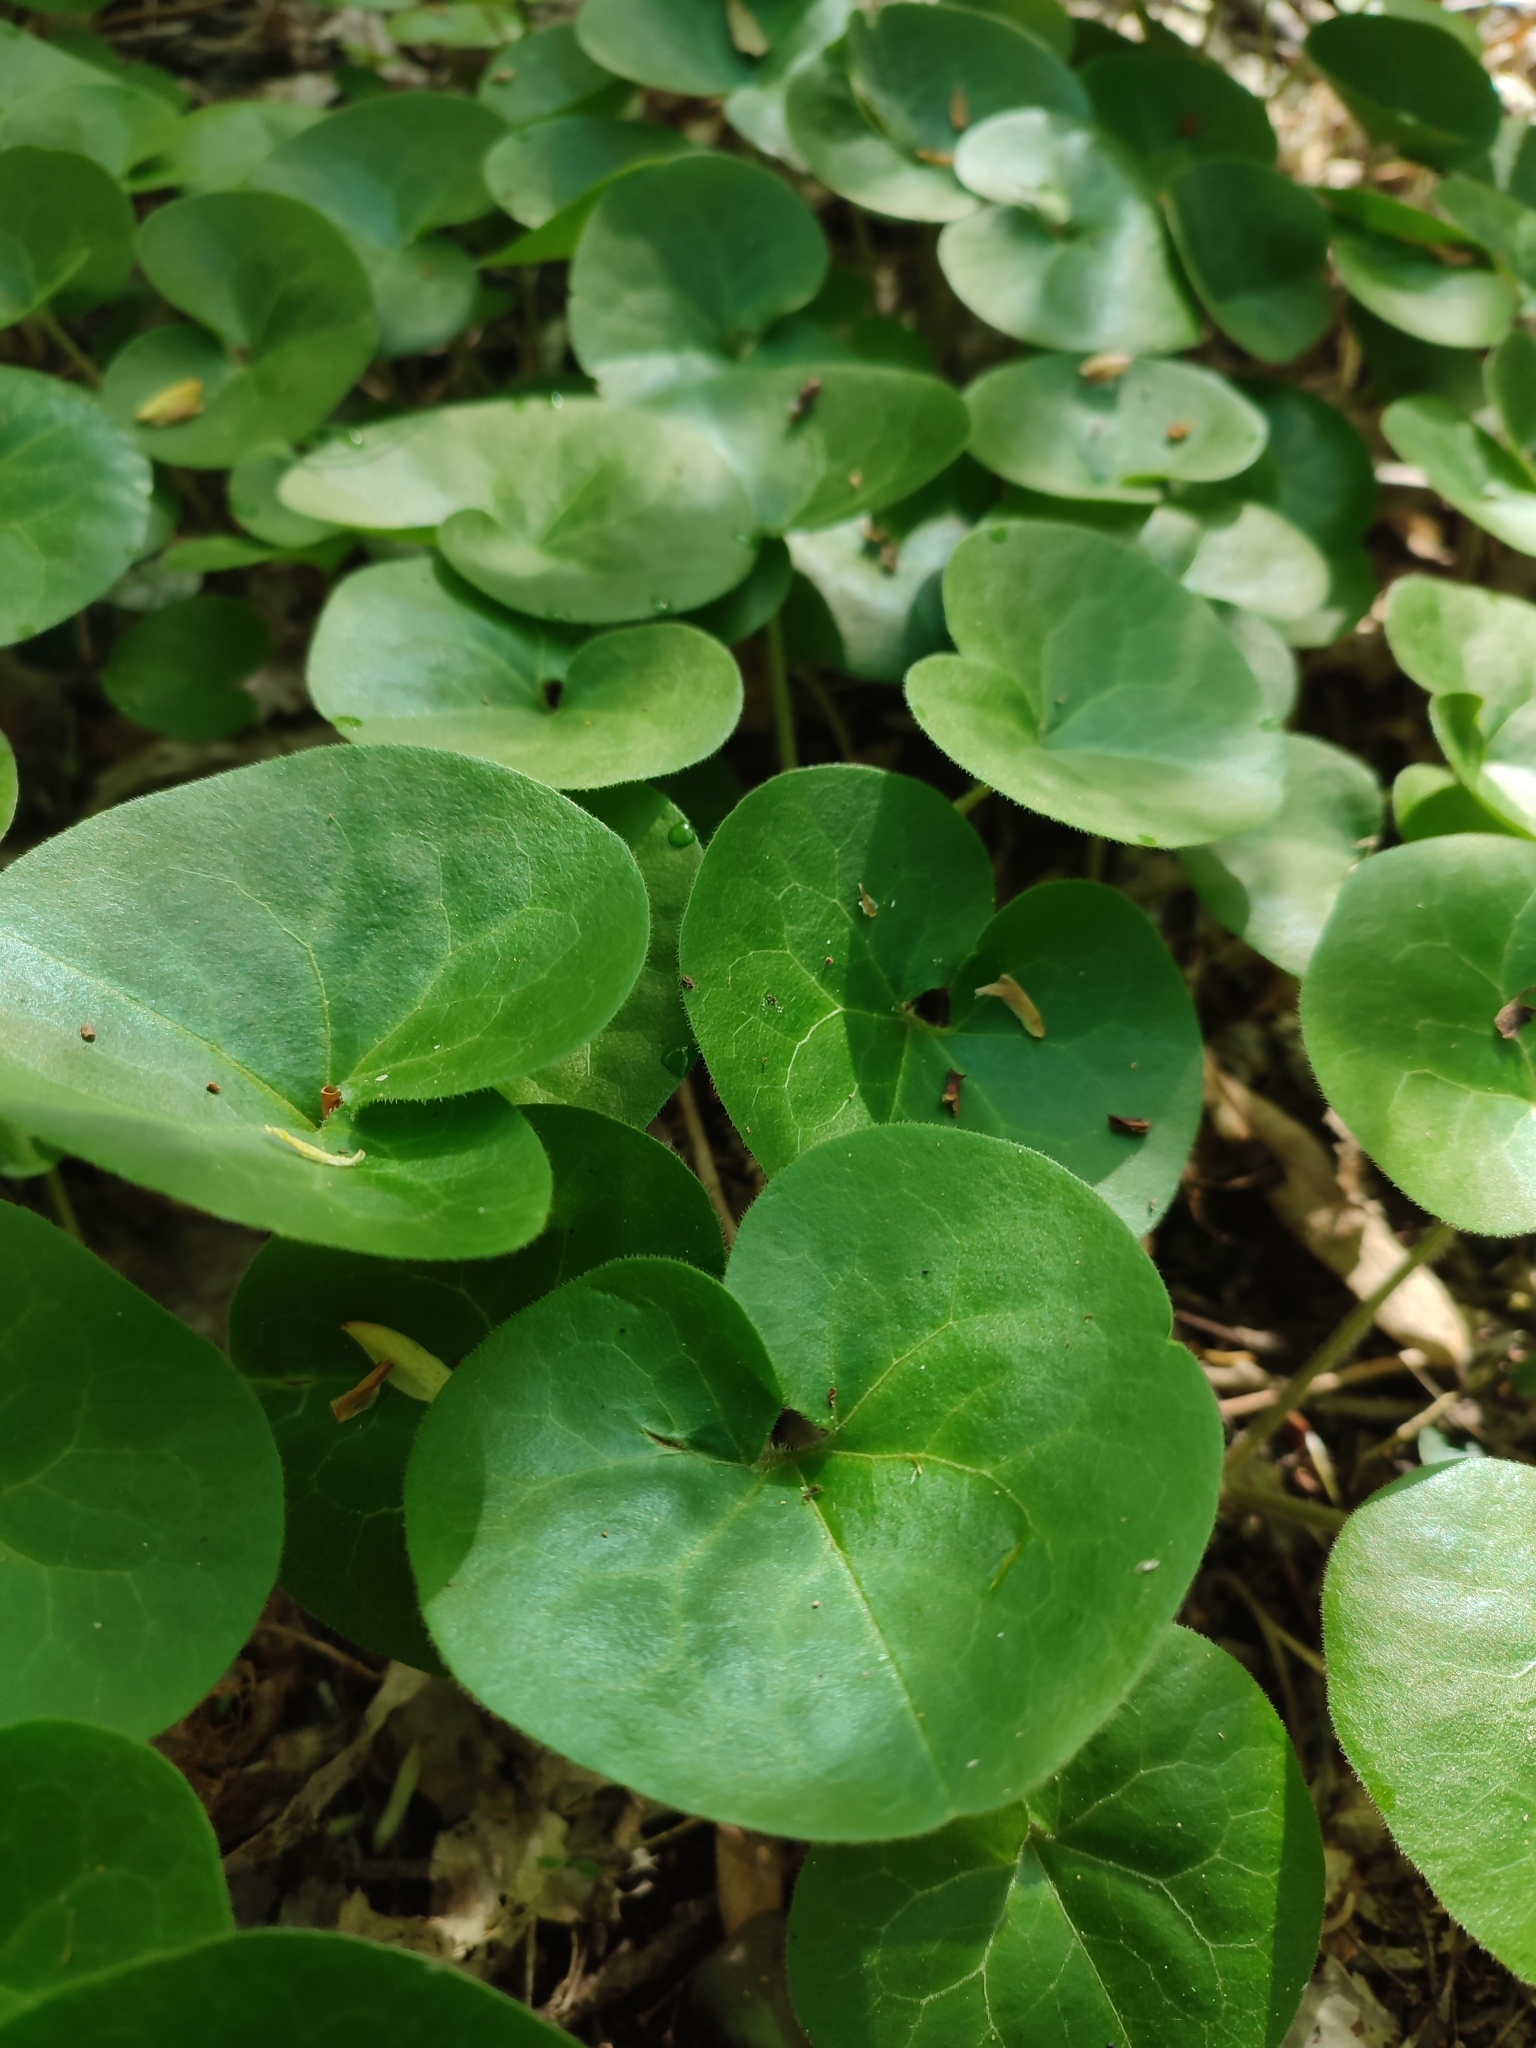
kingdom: Plantae
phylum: Tracheophyta
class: Magnoliopsida
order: Piperales
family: Aristolochiaceae
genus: Asarum
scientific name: Asarum europaeum
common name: Asarabacca
